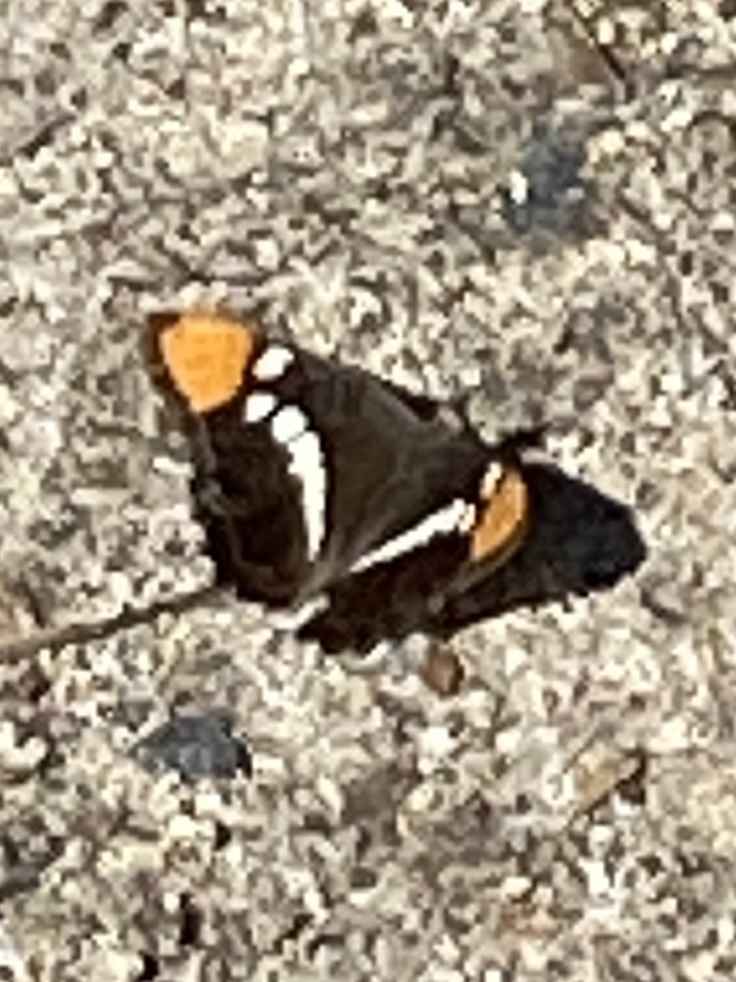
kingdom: Animalia
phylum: Arthropoda
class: Insecta
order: Lepidoptera
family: Nymphalidae
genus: Limenitis
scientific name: Limenitis bredowii
